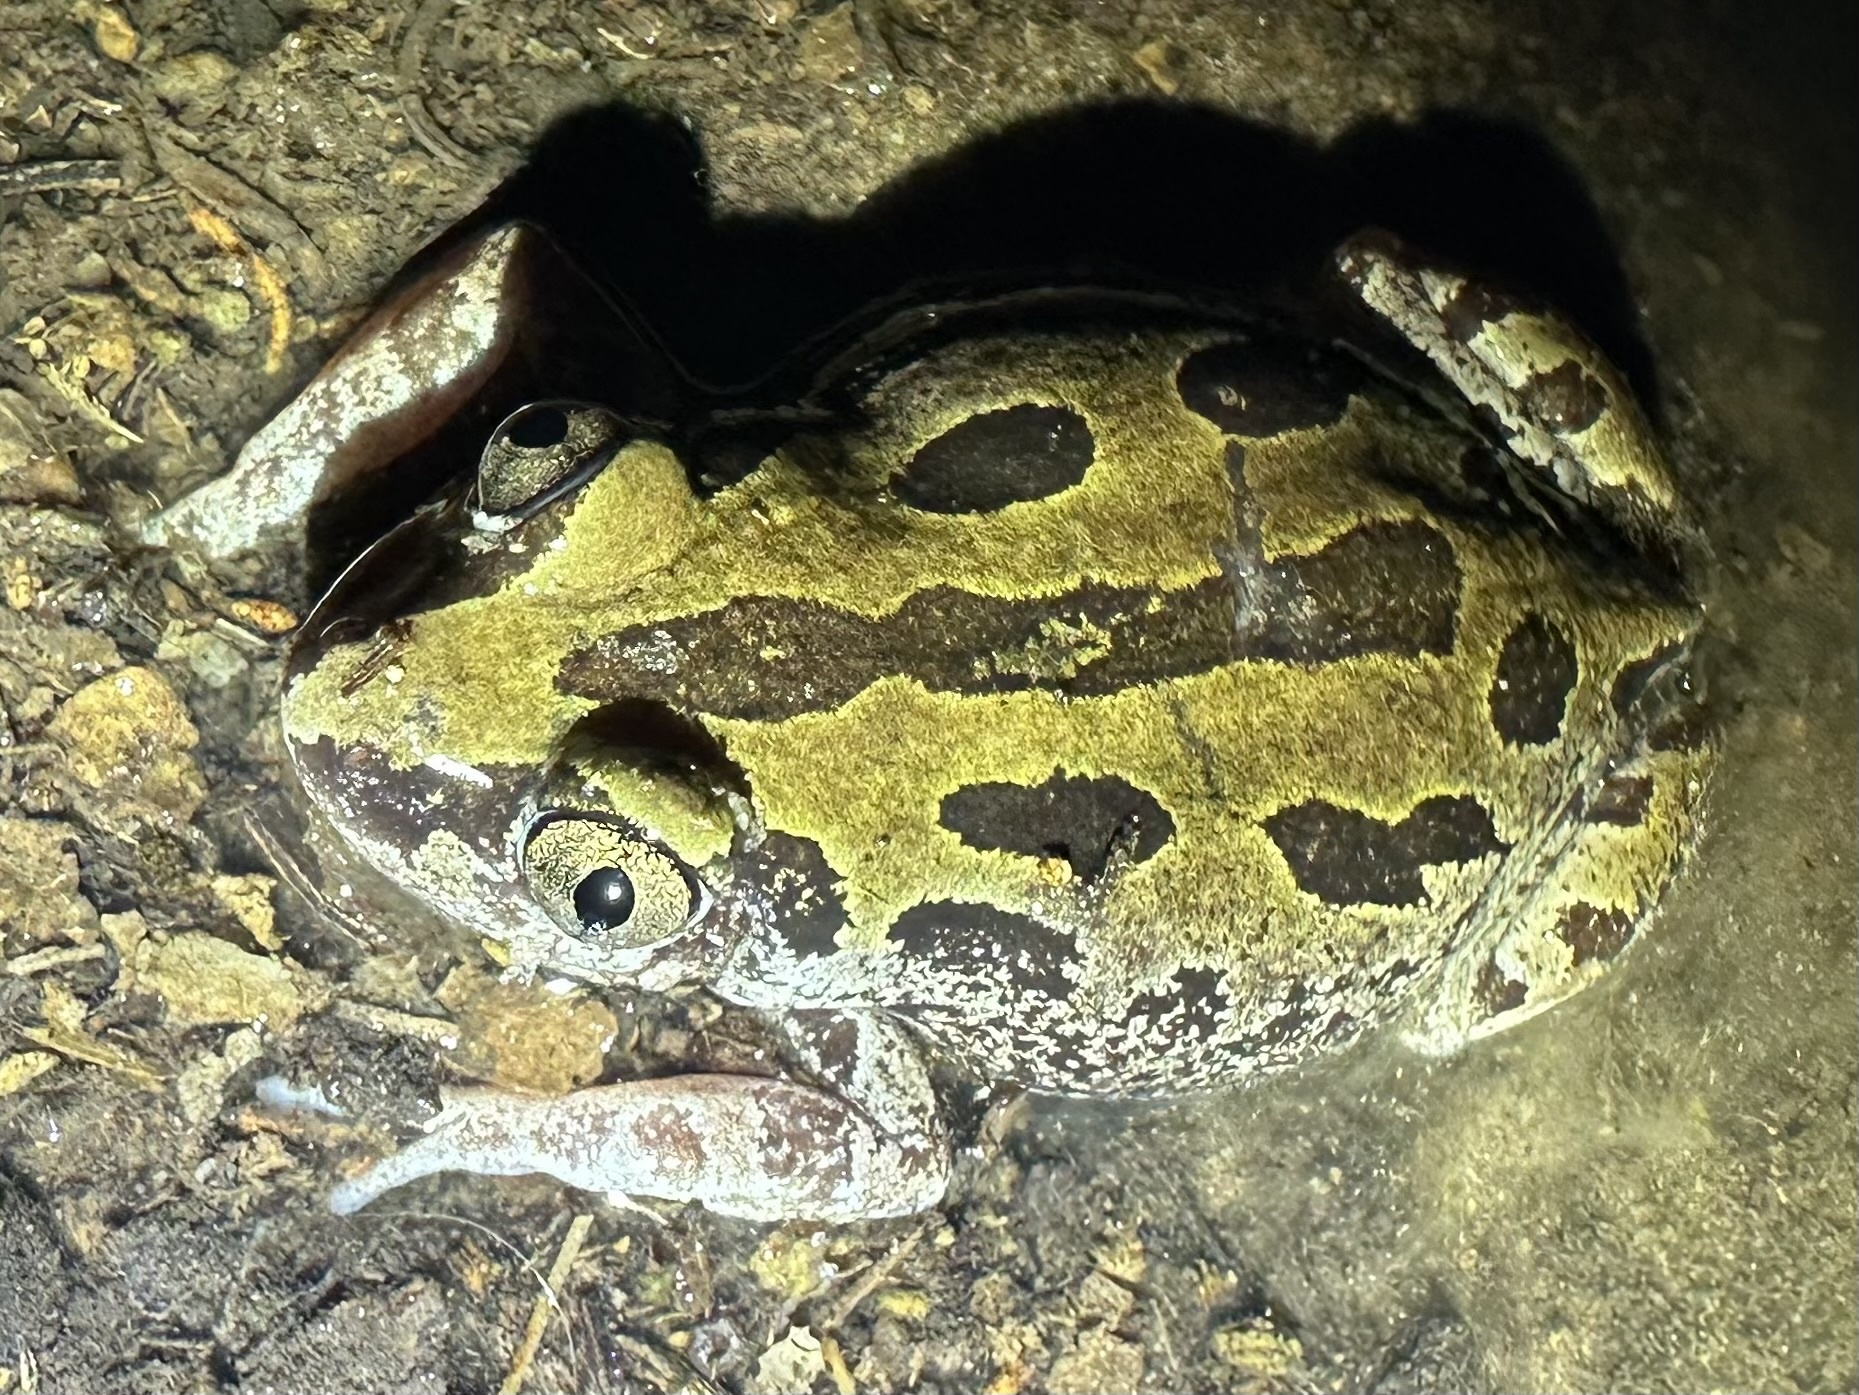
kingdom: Animalia
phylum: Chordata
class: Amphibia
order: Anura
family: Hyperoliidae
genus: Kassina
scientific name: Kassina senegalensis
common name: Senegal land frog
